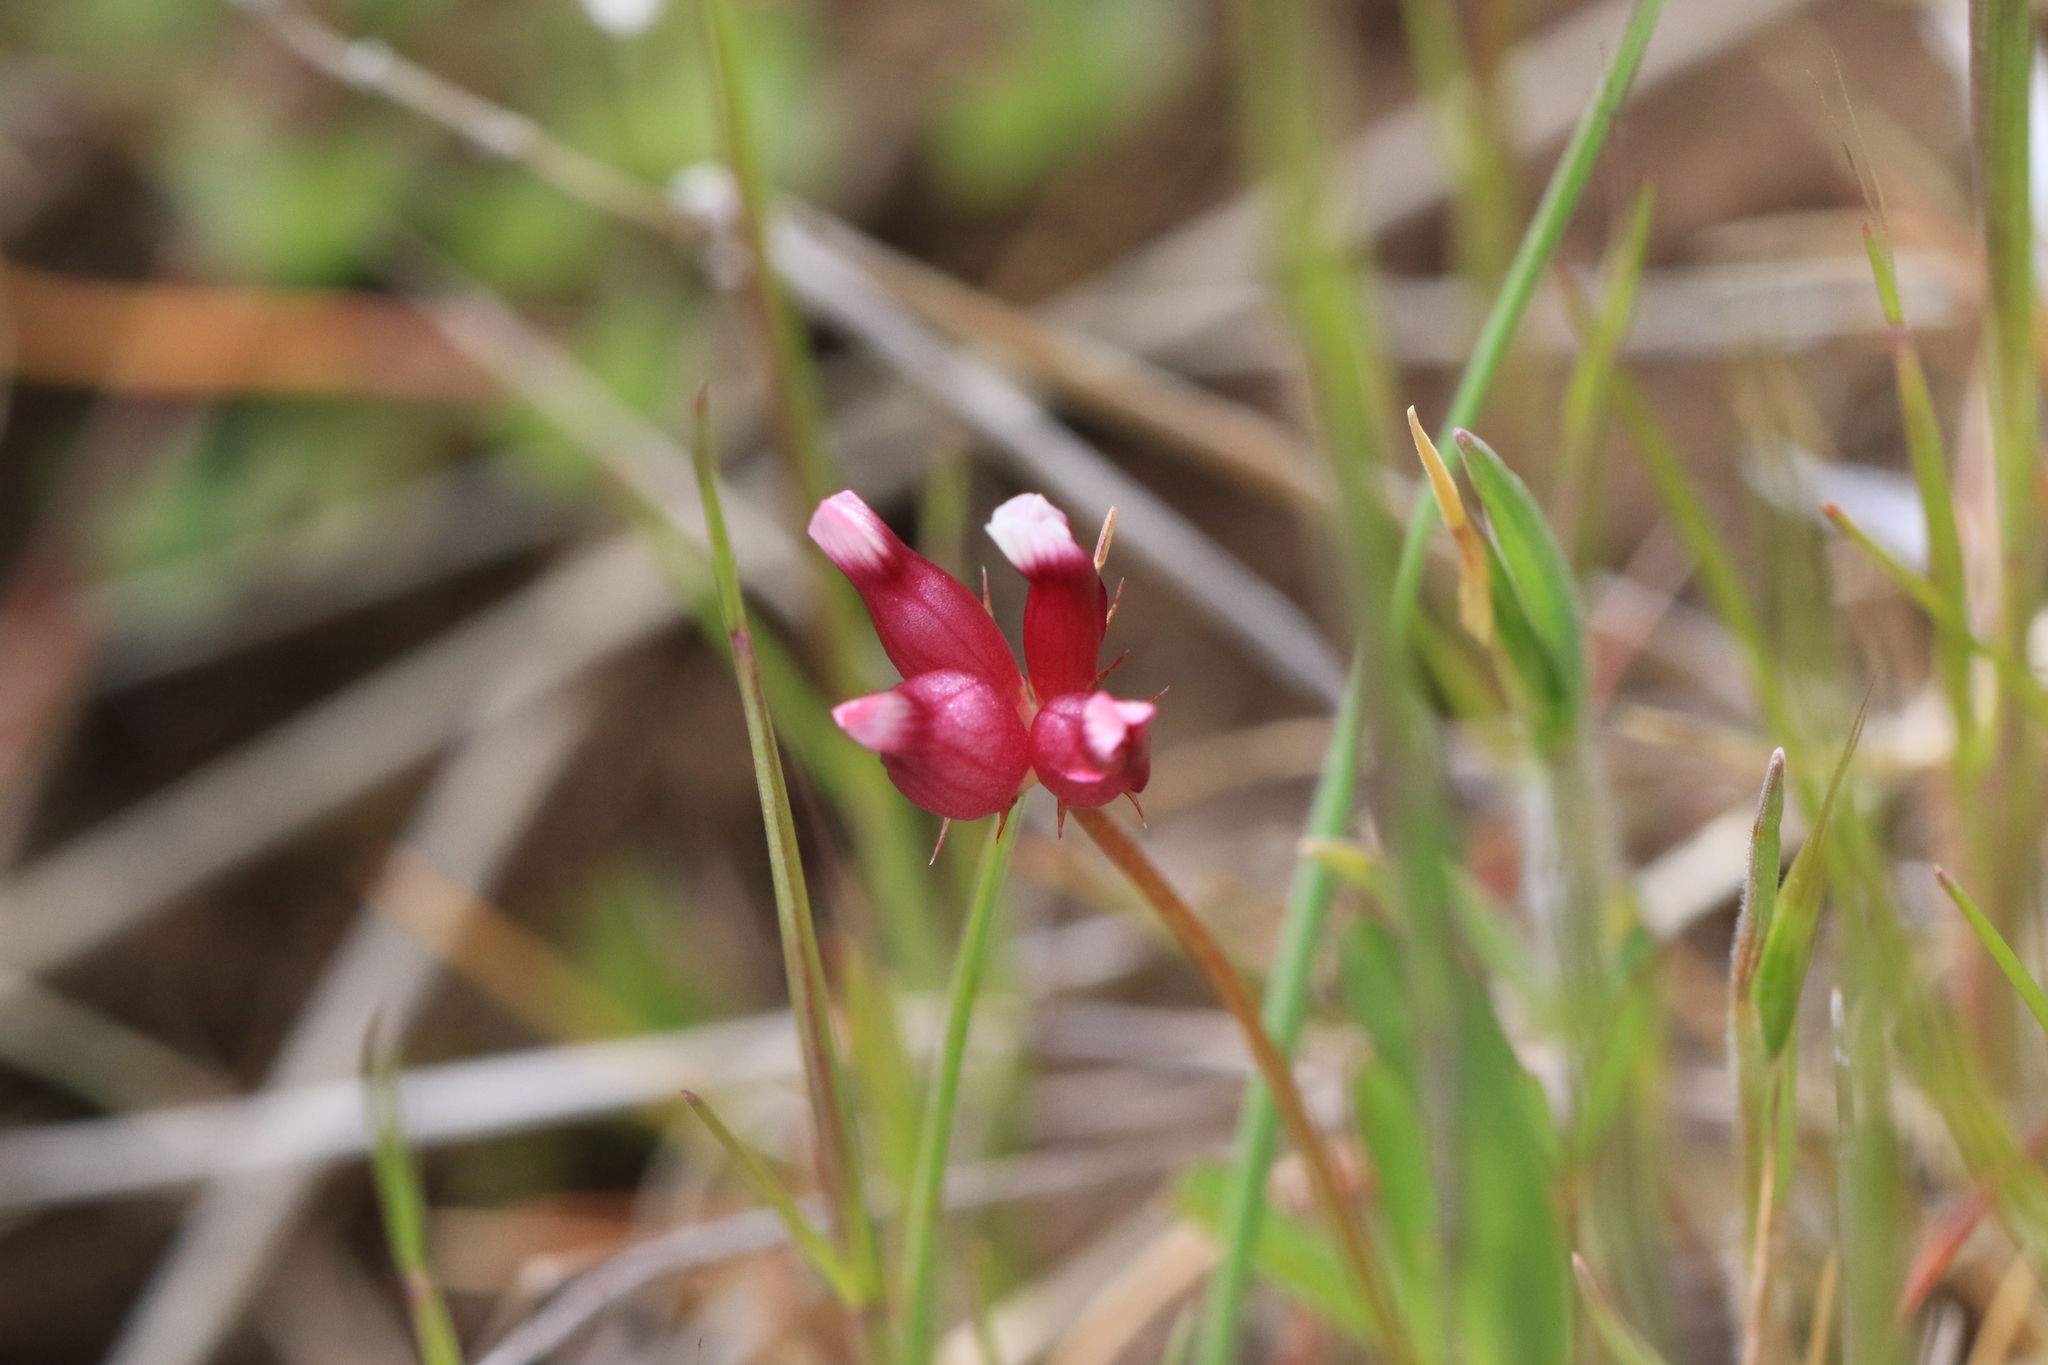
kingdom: Plantae
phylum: Tracheophyta
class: Magnoliopsida
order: Fabales
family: Fabaceae
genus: Trifolium
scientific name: Trifolium depauperatum
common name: Poverty clover
